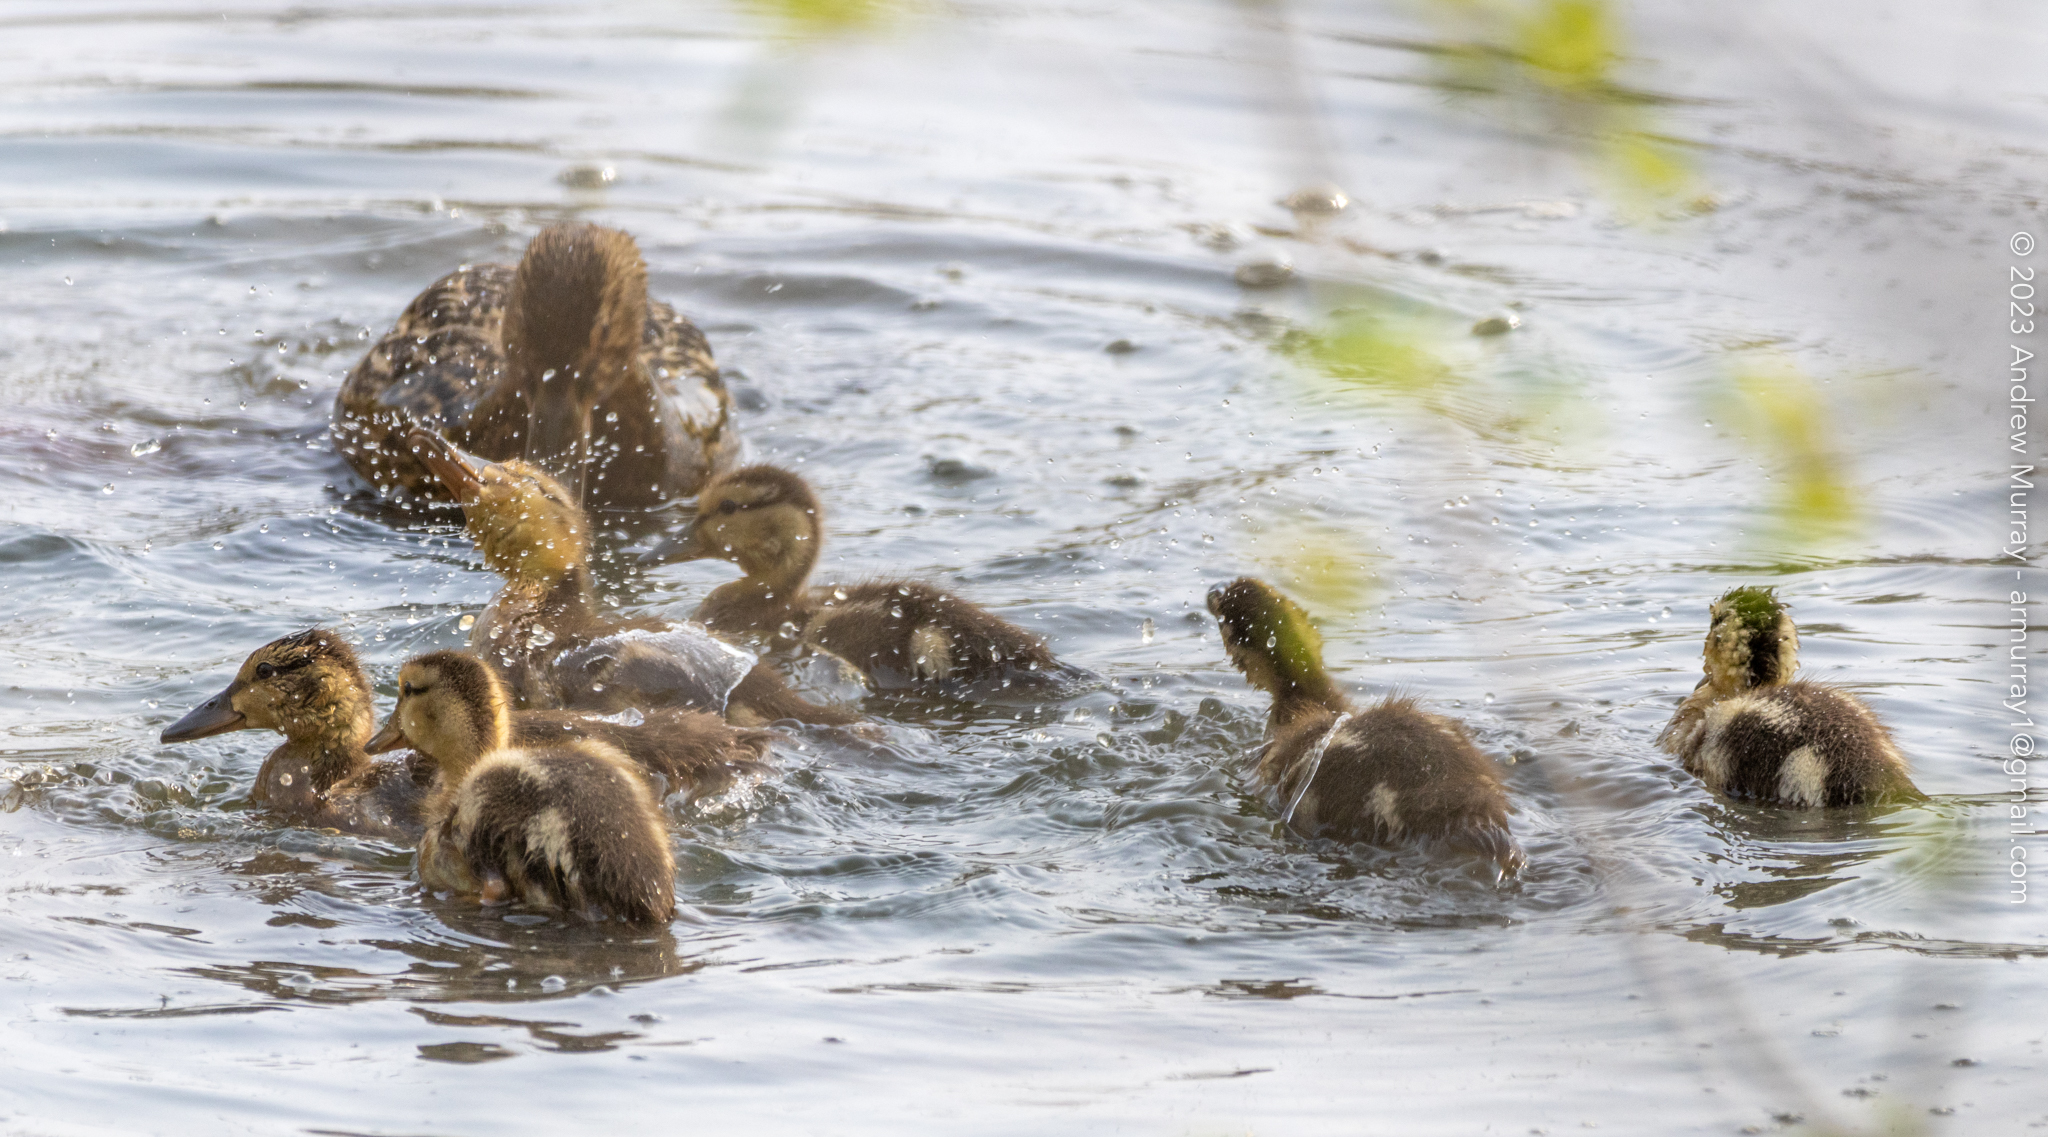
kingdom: Animalia
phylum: Chordata
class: Aves
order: Anseriformes
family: Anatidae
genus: Anas
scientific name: Anas platyrhynchos
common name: Mallard
